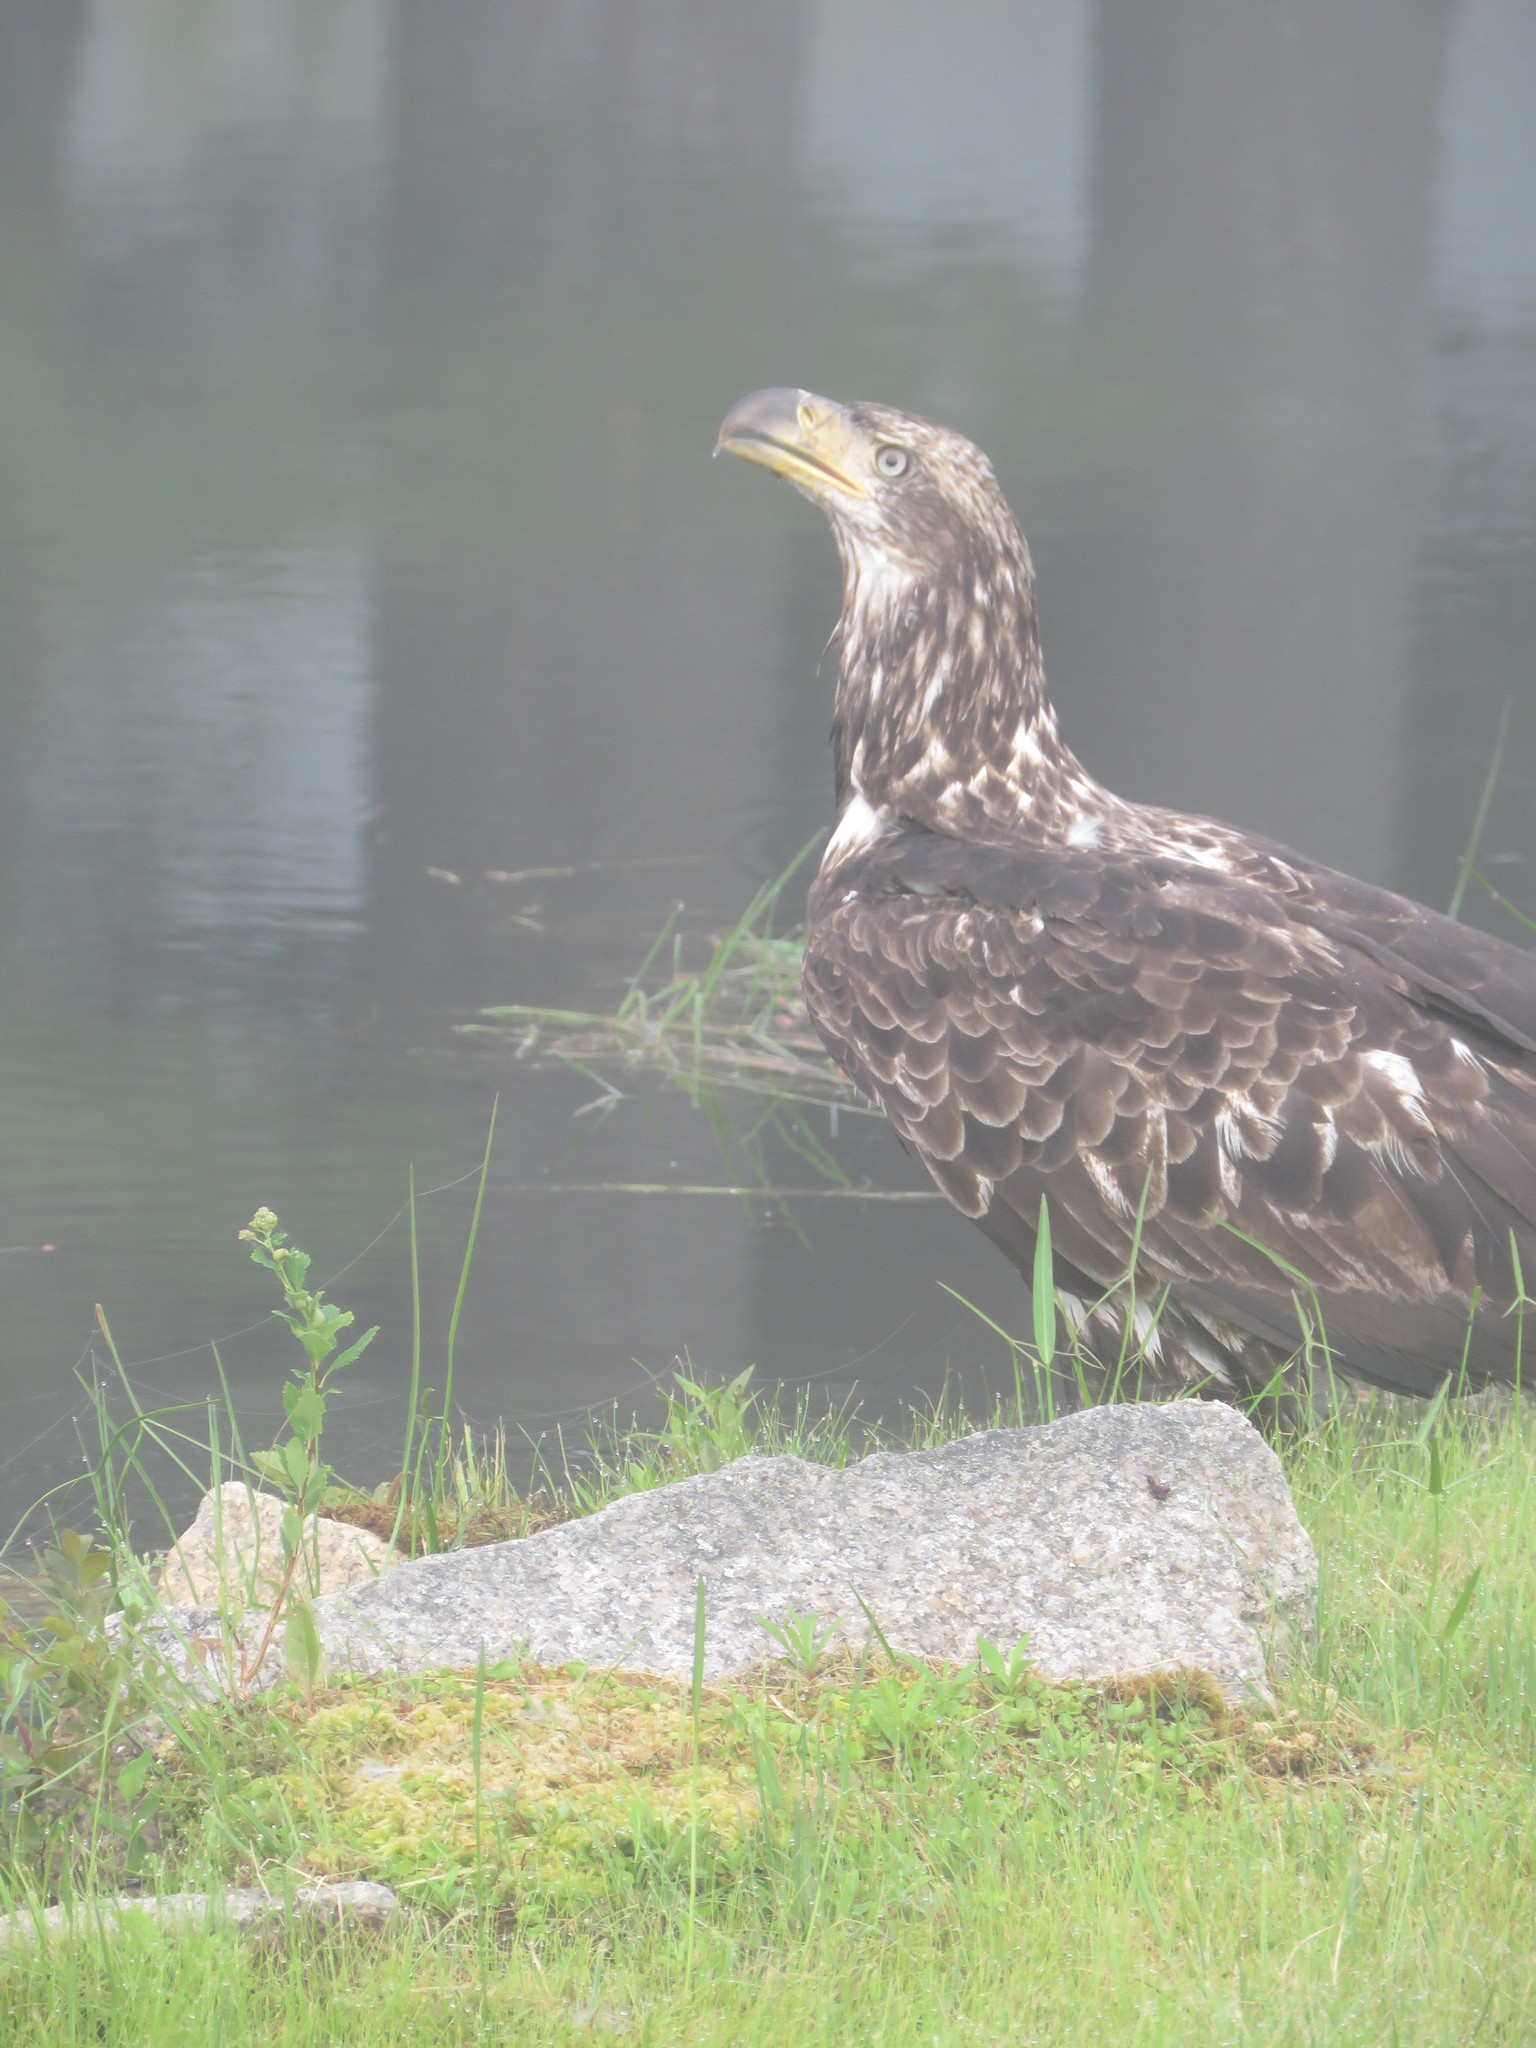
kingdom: Animalia
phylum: Chordata
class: Aves
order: Accipitriformes
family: Accipitridae
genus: Haliaeetus
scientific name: Haliaeetus leucocephalus
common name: Bald eagle
